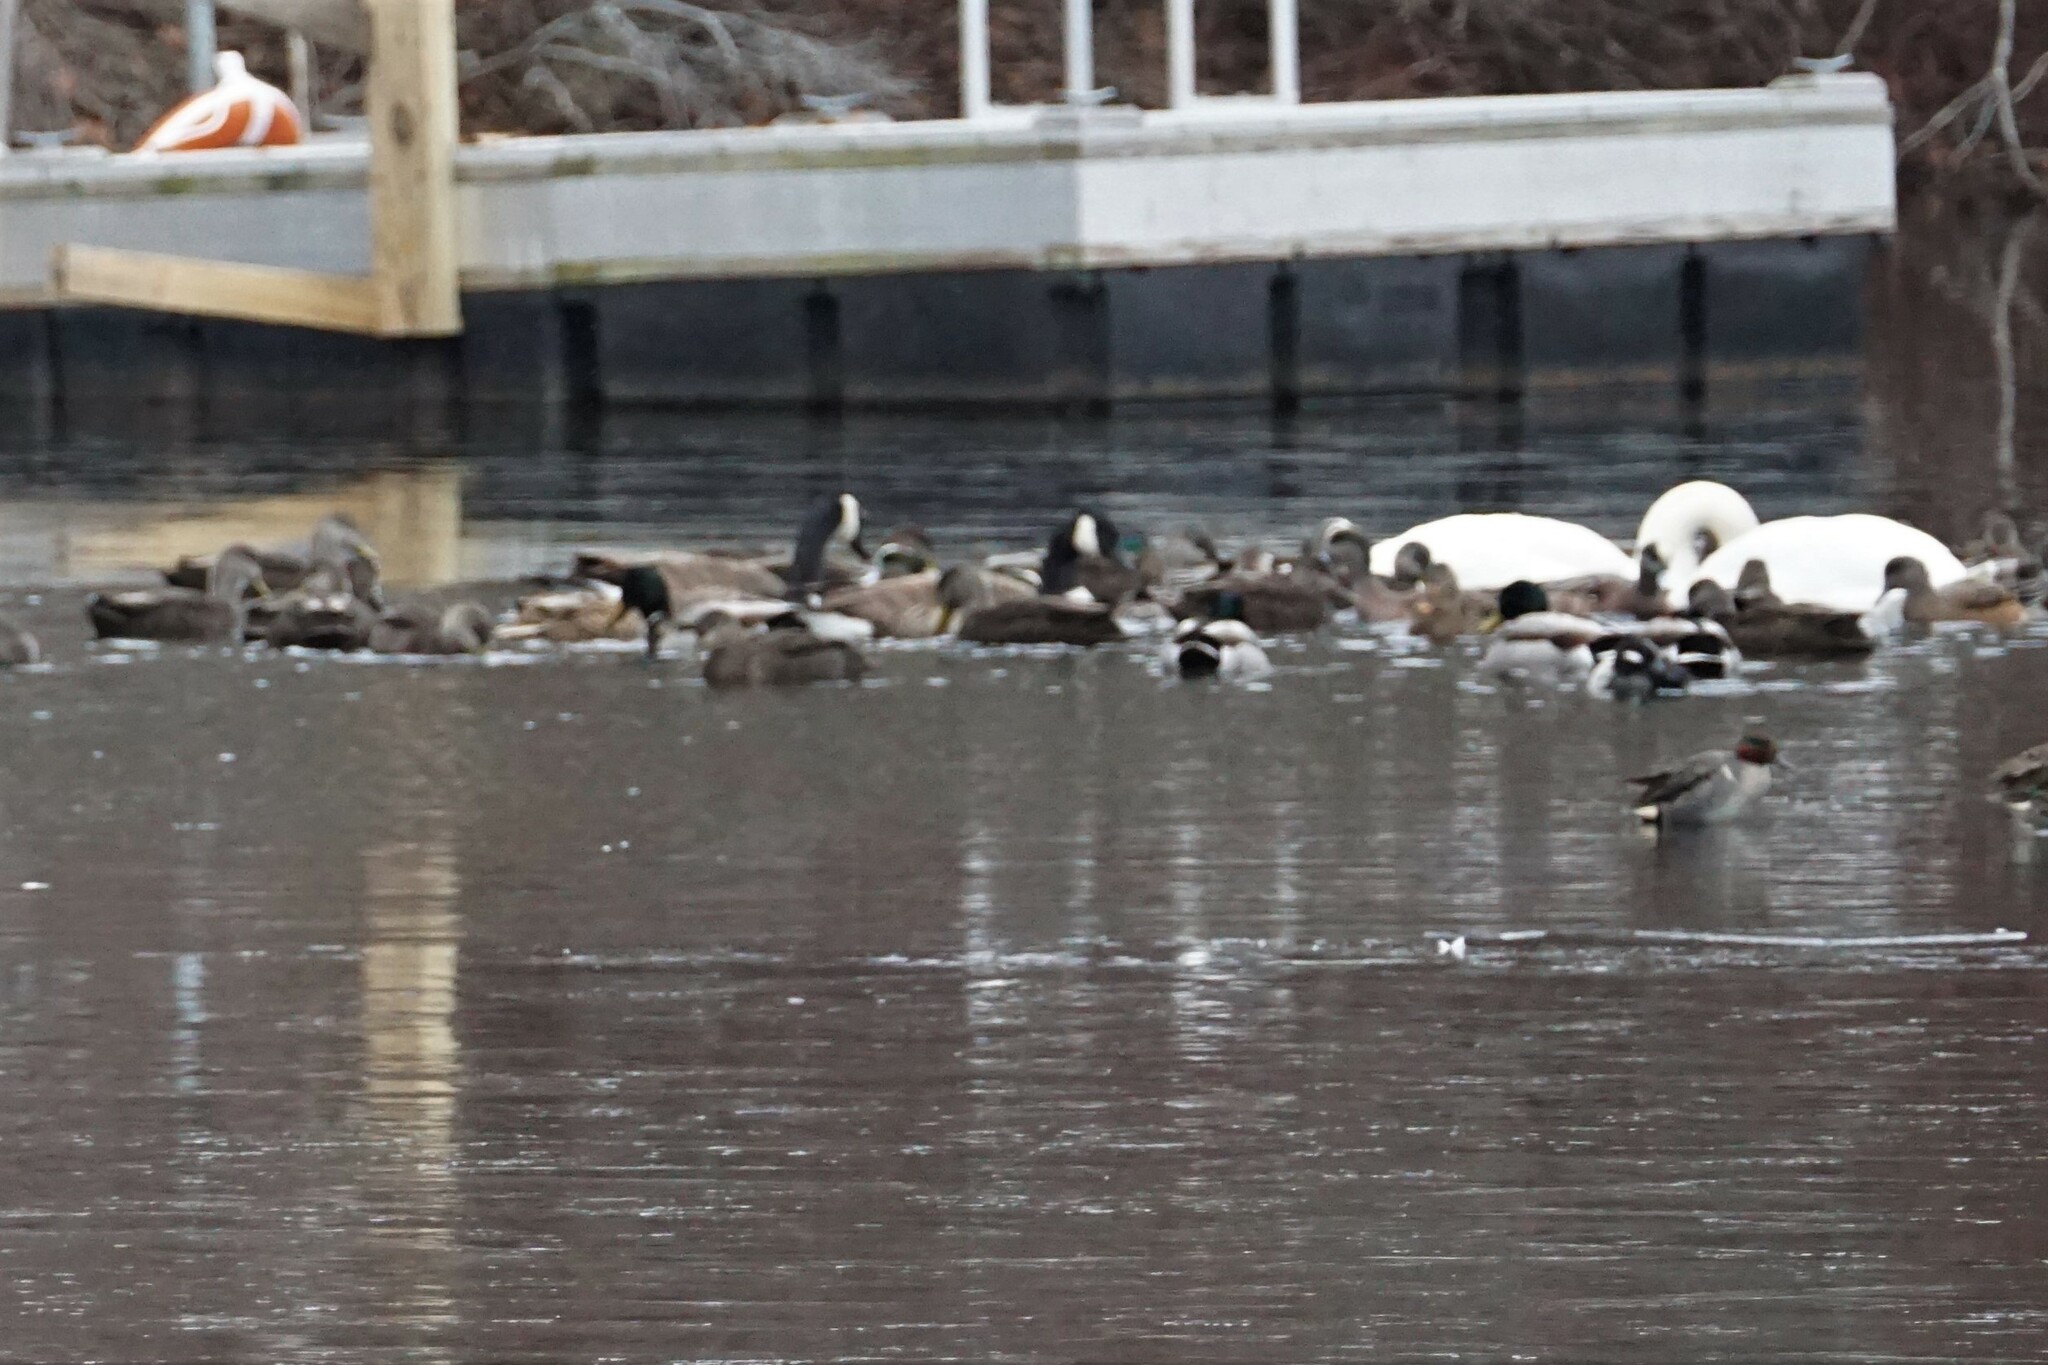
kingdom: Animalia
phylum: Chordata
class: Aves
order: Anseriformes
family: Anatidae
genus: Anas
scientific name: Anas carolinensis
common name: Green-winged teal
